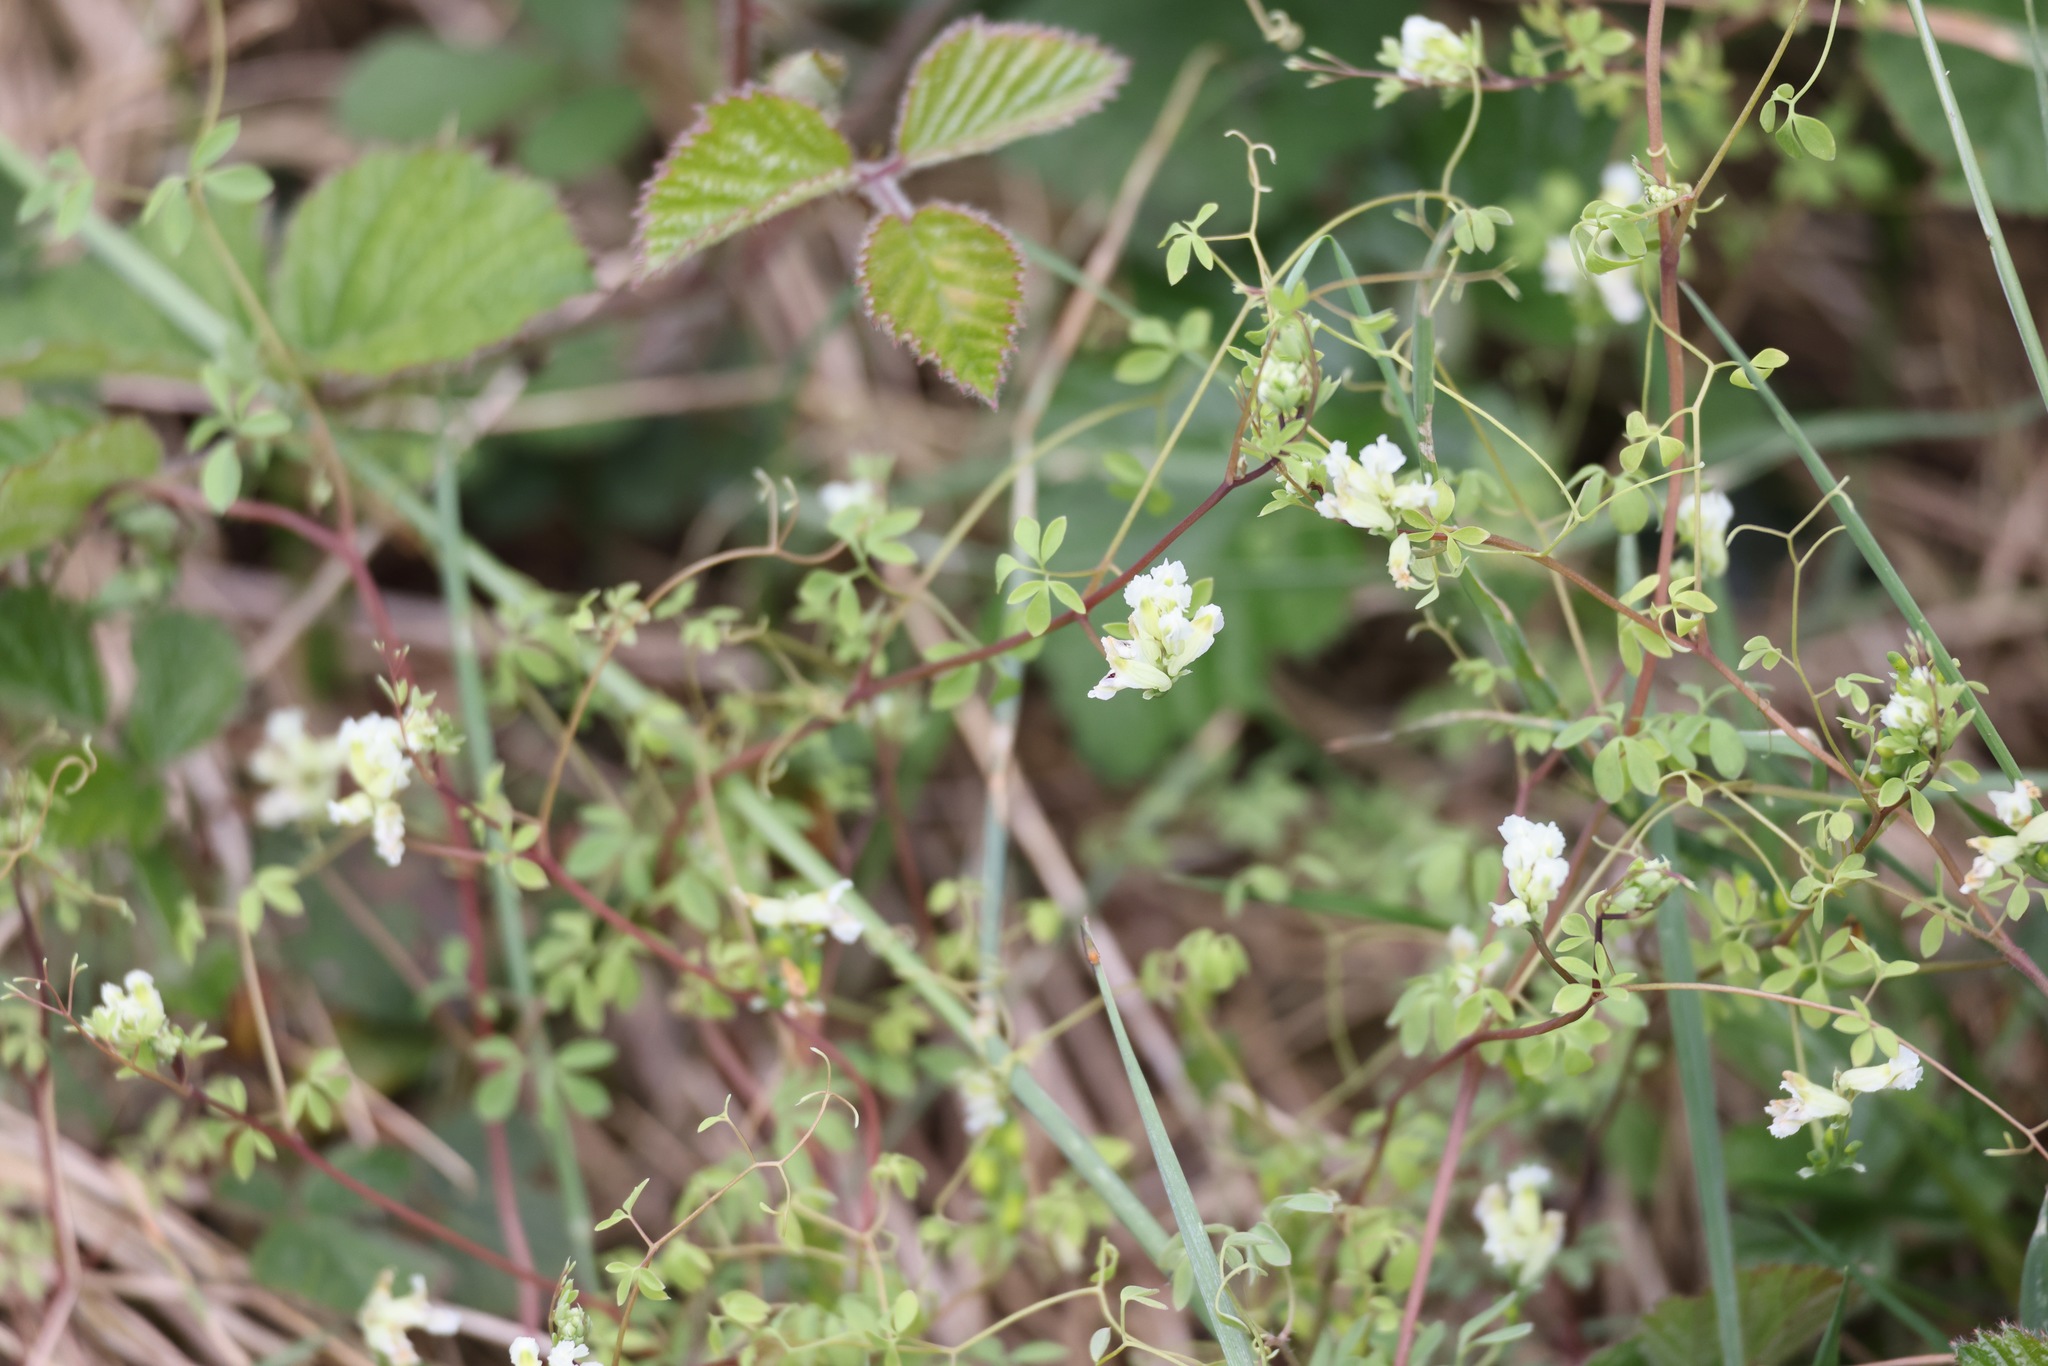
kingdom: Plantae
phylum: Tracheophyta
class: Magnoliopsida
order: Ranunculales
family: Papaveraceae
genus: Ceratocapnos
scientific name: Ceratocapnos claviculata
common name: Climbing corydalis
